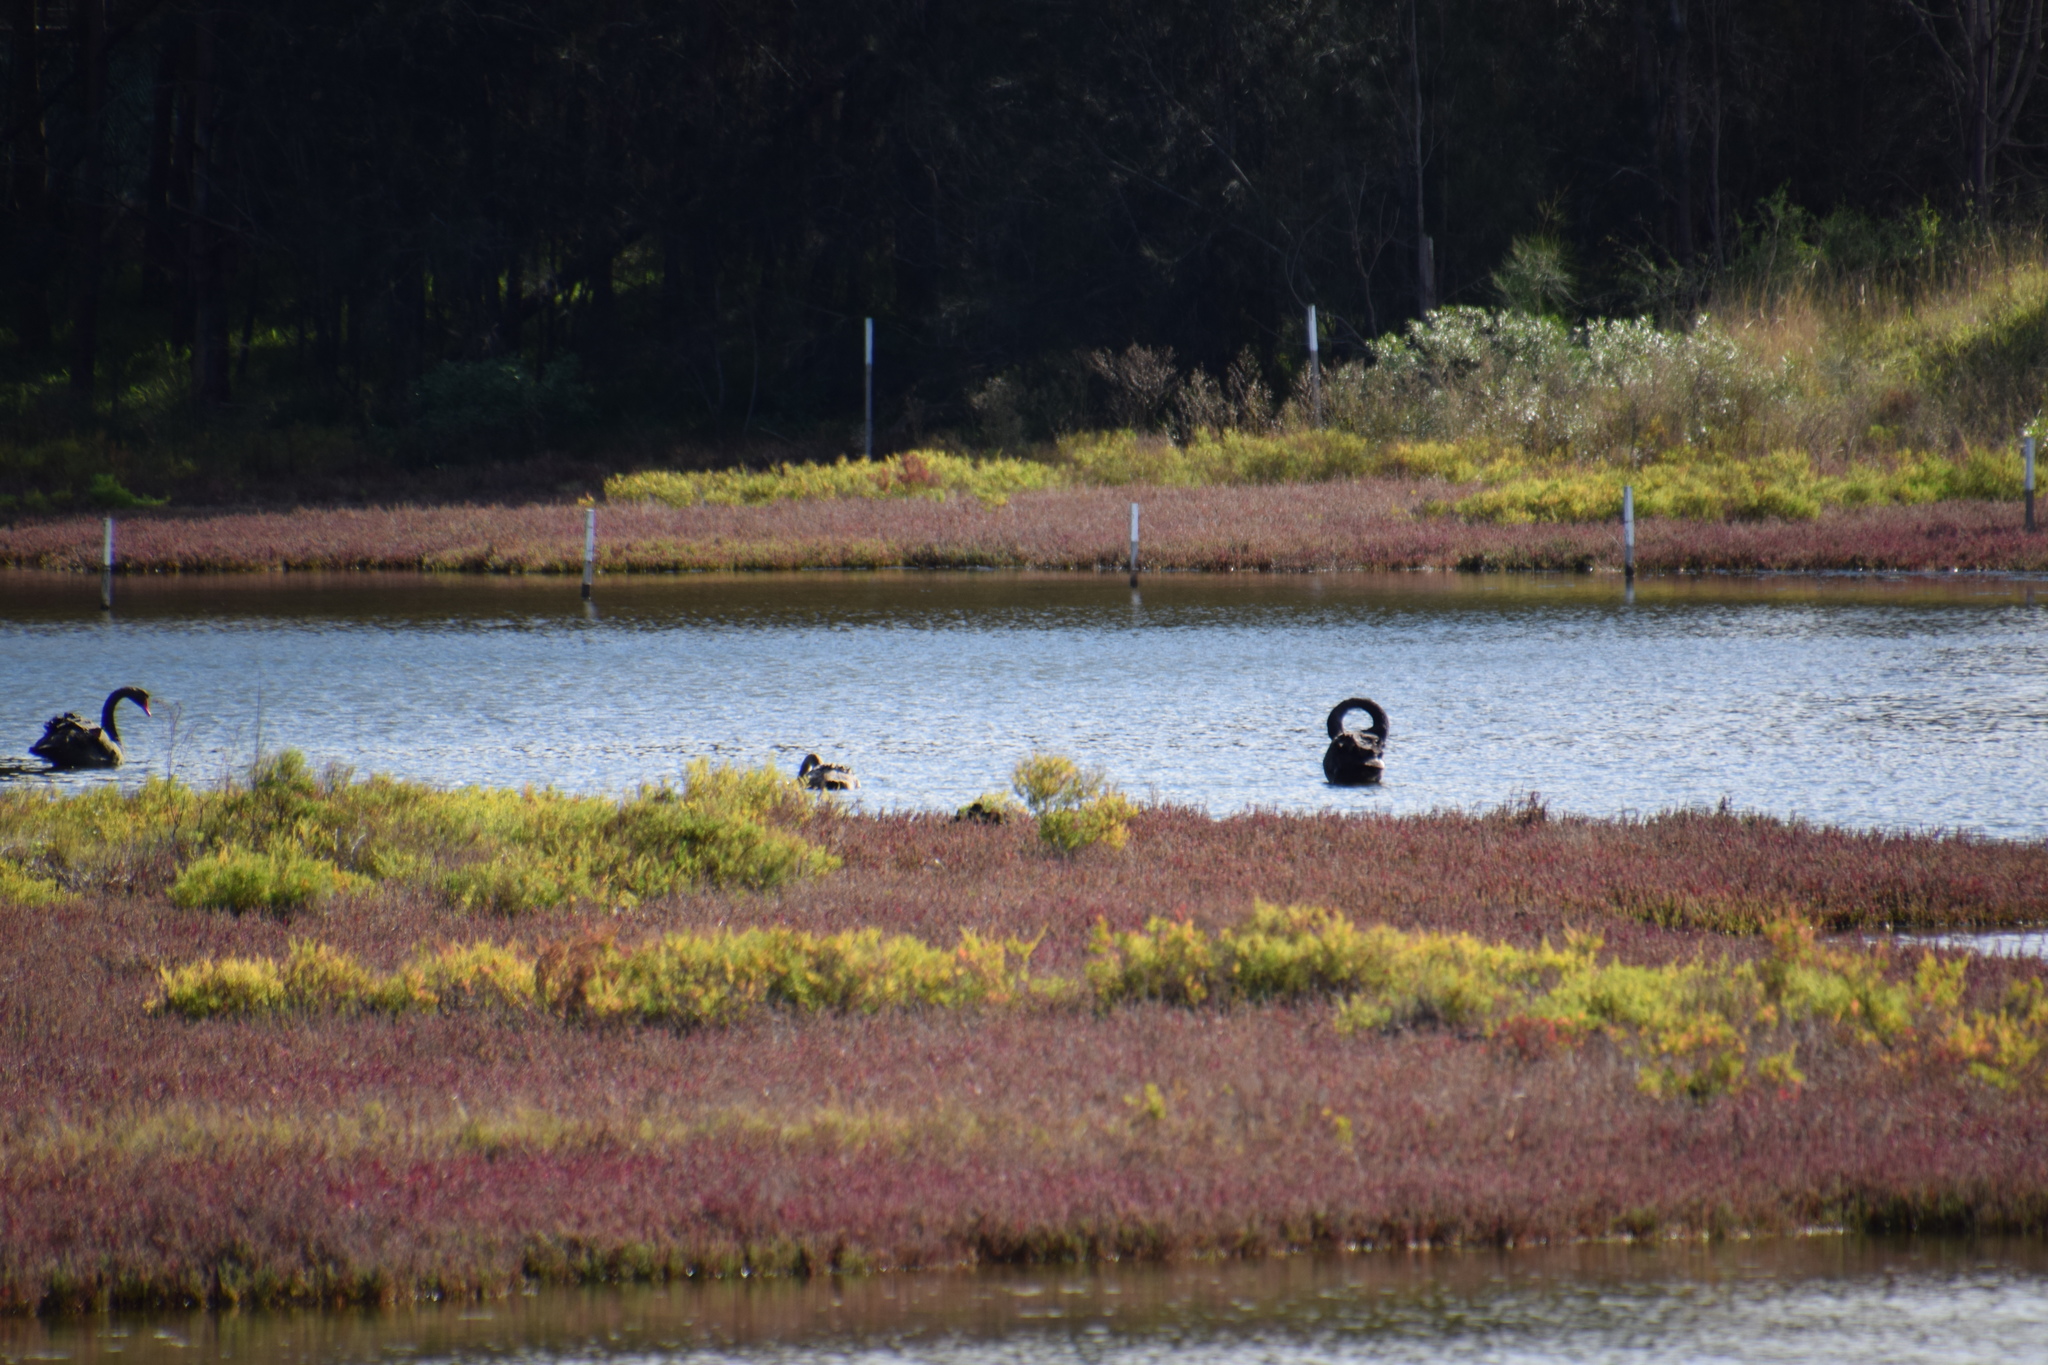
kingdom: Animalia
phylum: Chordata
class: Aves
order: Anseriformes
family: Anatidae
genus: Cygnus
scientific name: Cygnus atratus
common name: Black swan
